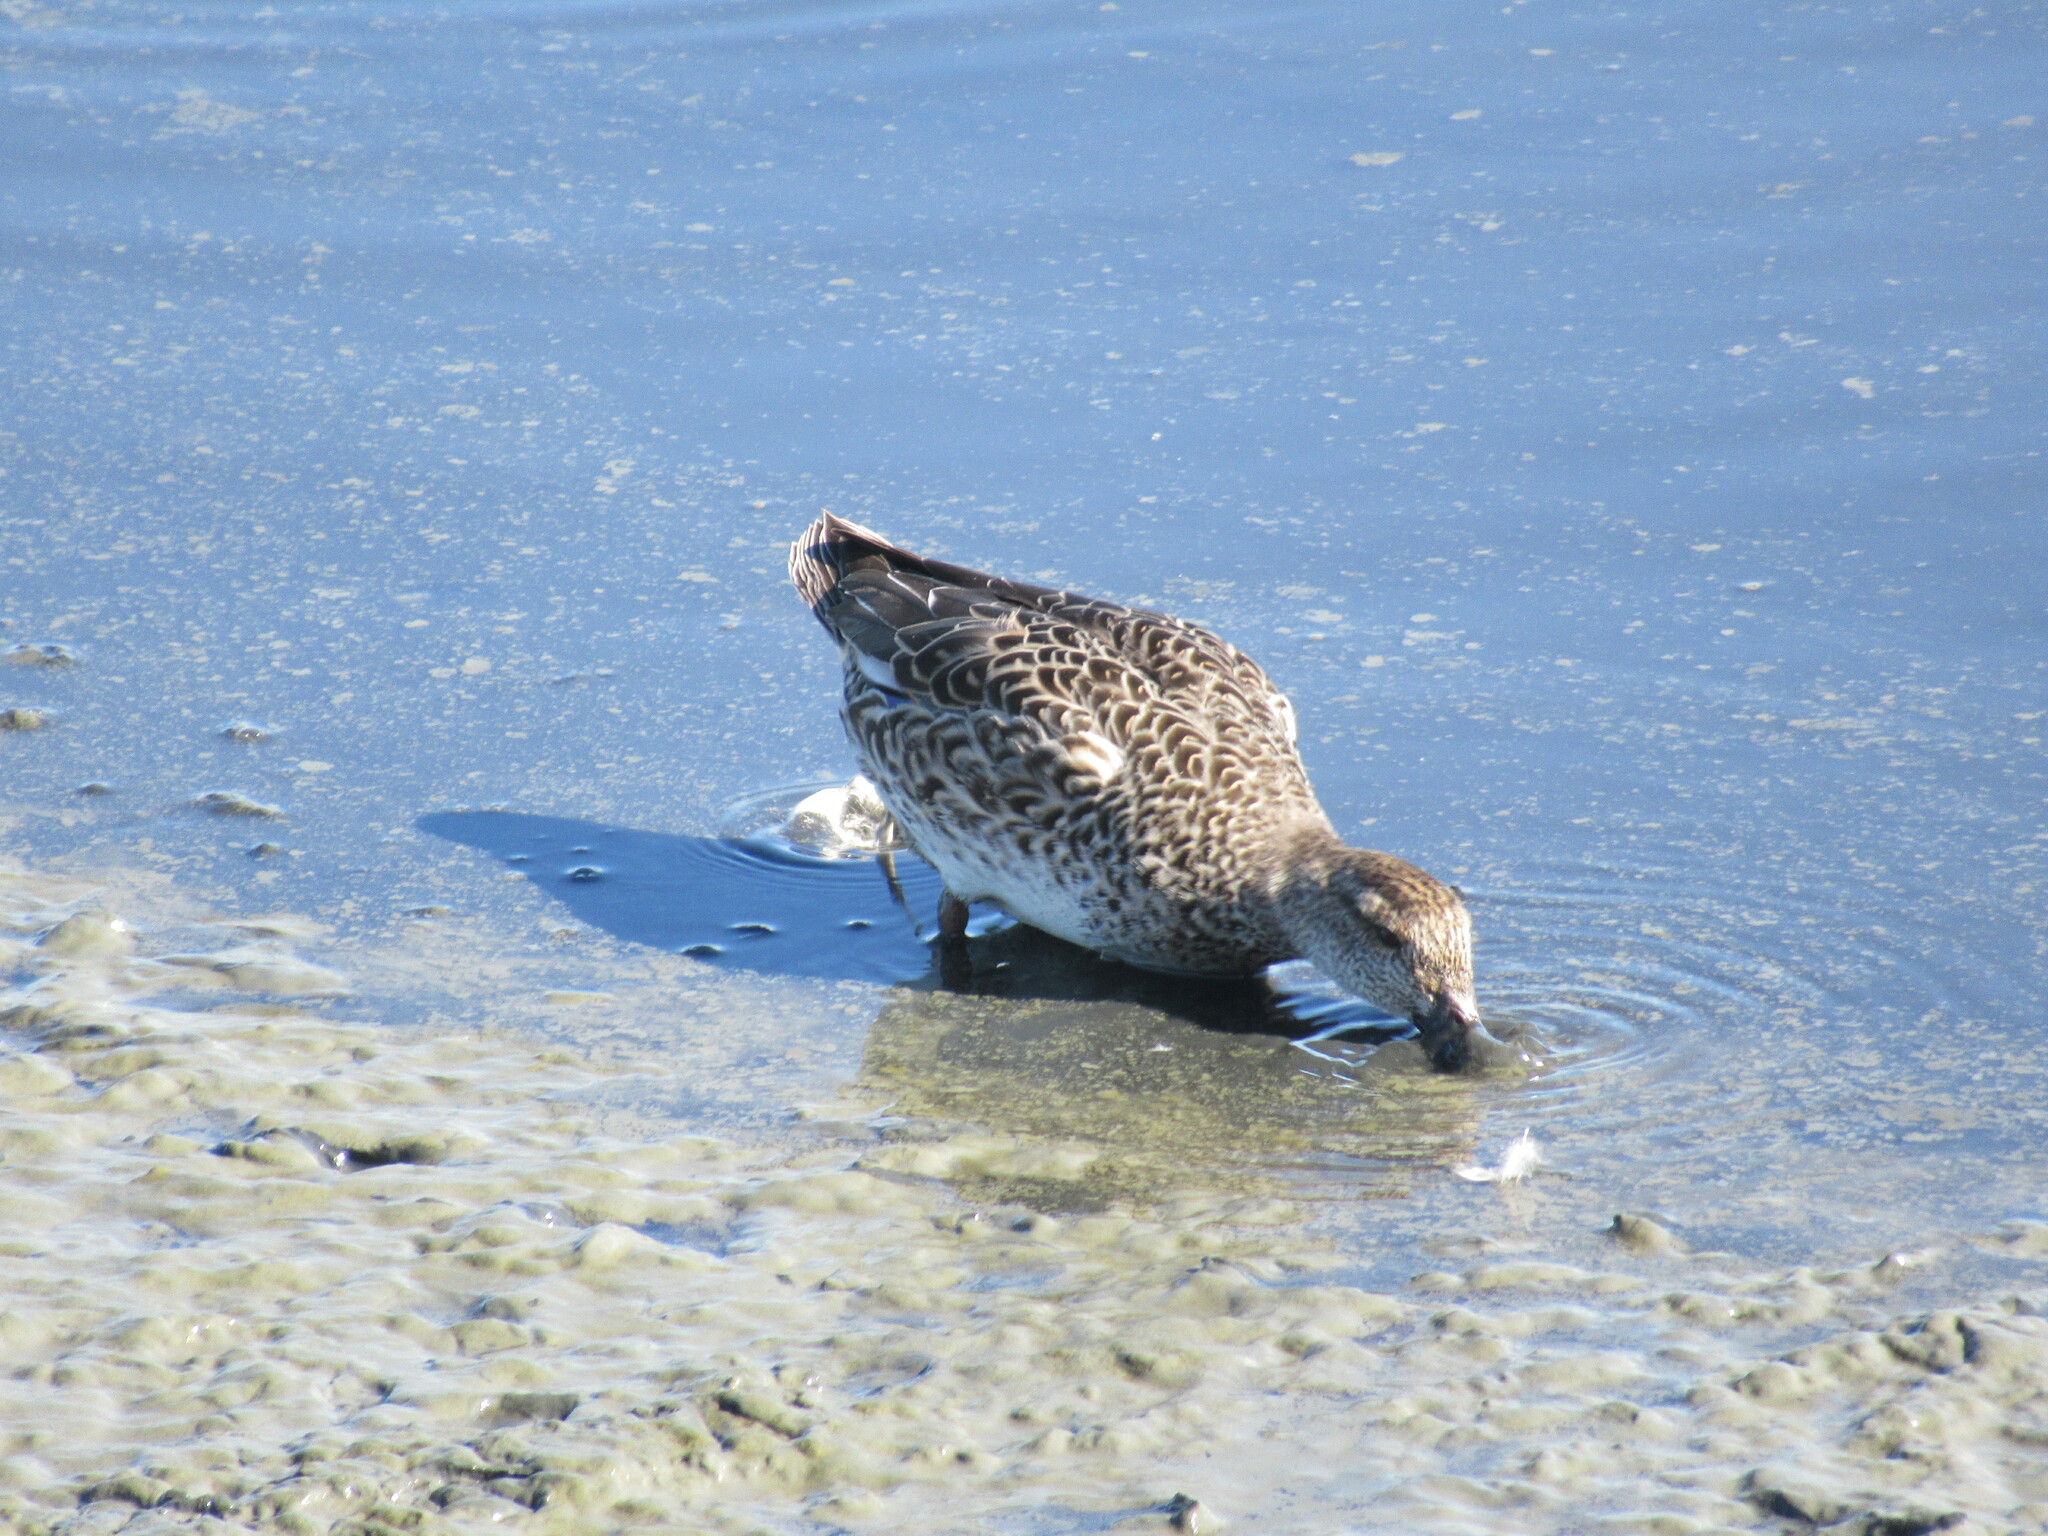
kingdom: Animalia
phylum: Chordata
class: Aves
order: Anseriformes
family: Anatidae
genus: Anas
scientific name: Anas crecca
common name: Eurasian teal
